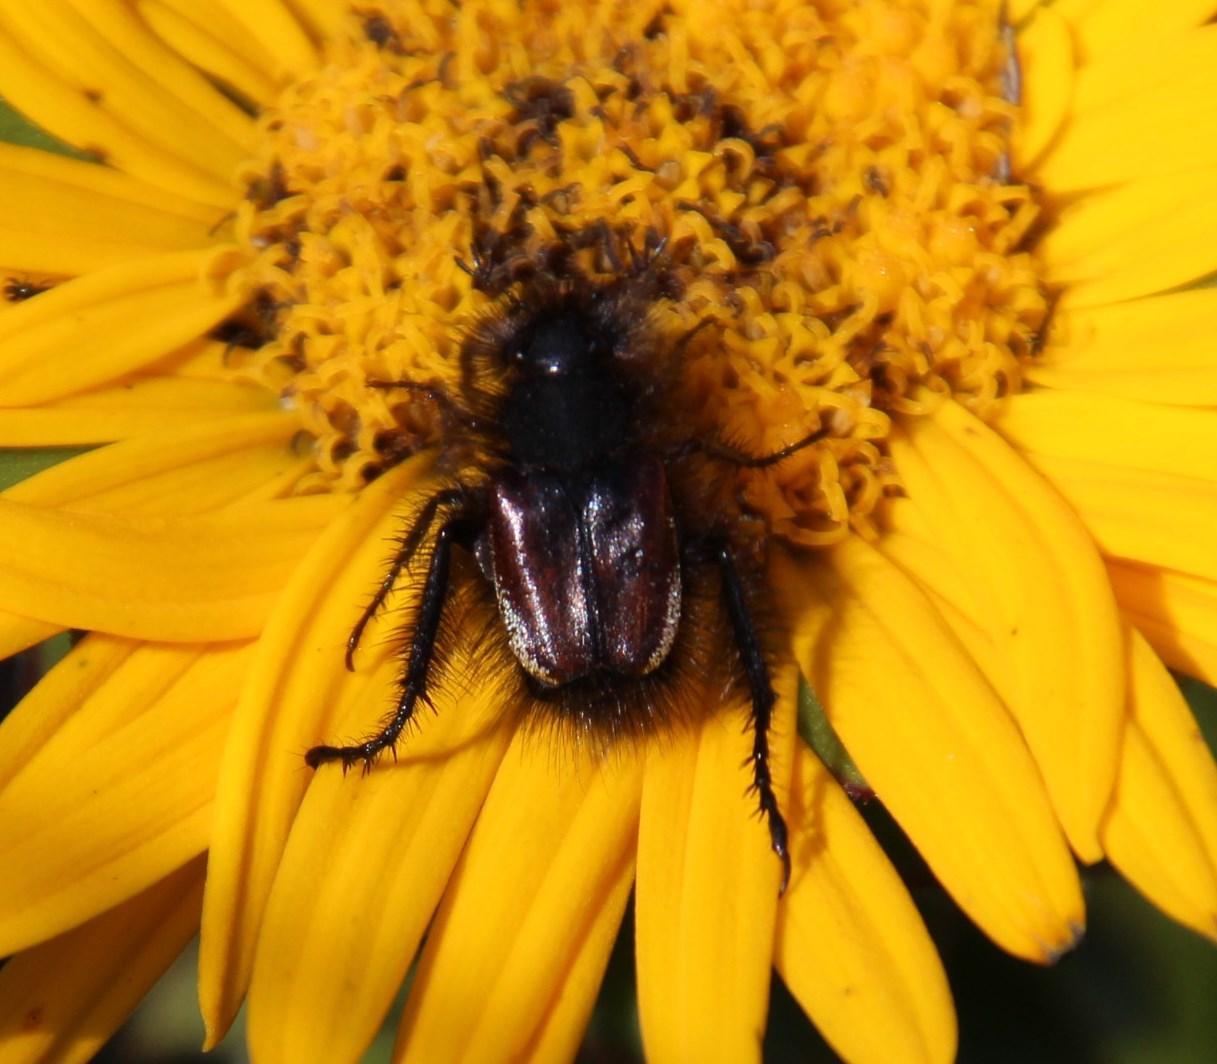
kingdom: Plantae
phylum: Tracheophyta
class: Magnoliopsida
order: Asterales
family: Asteraceae
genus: Oedera
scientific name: Oedera imbricata
